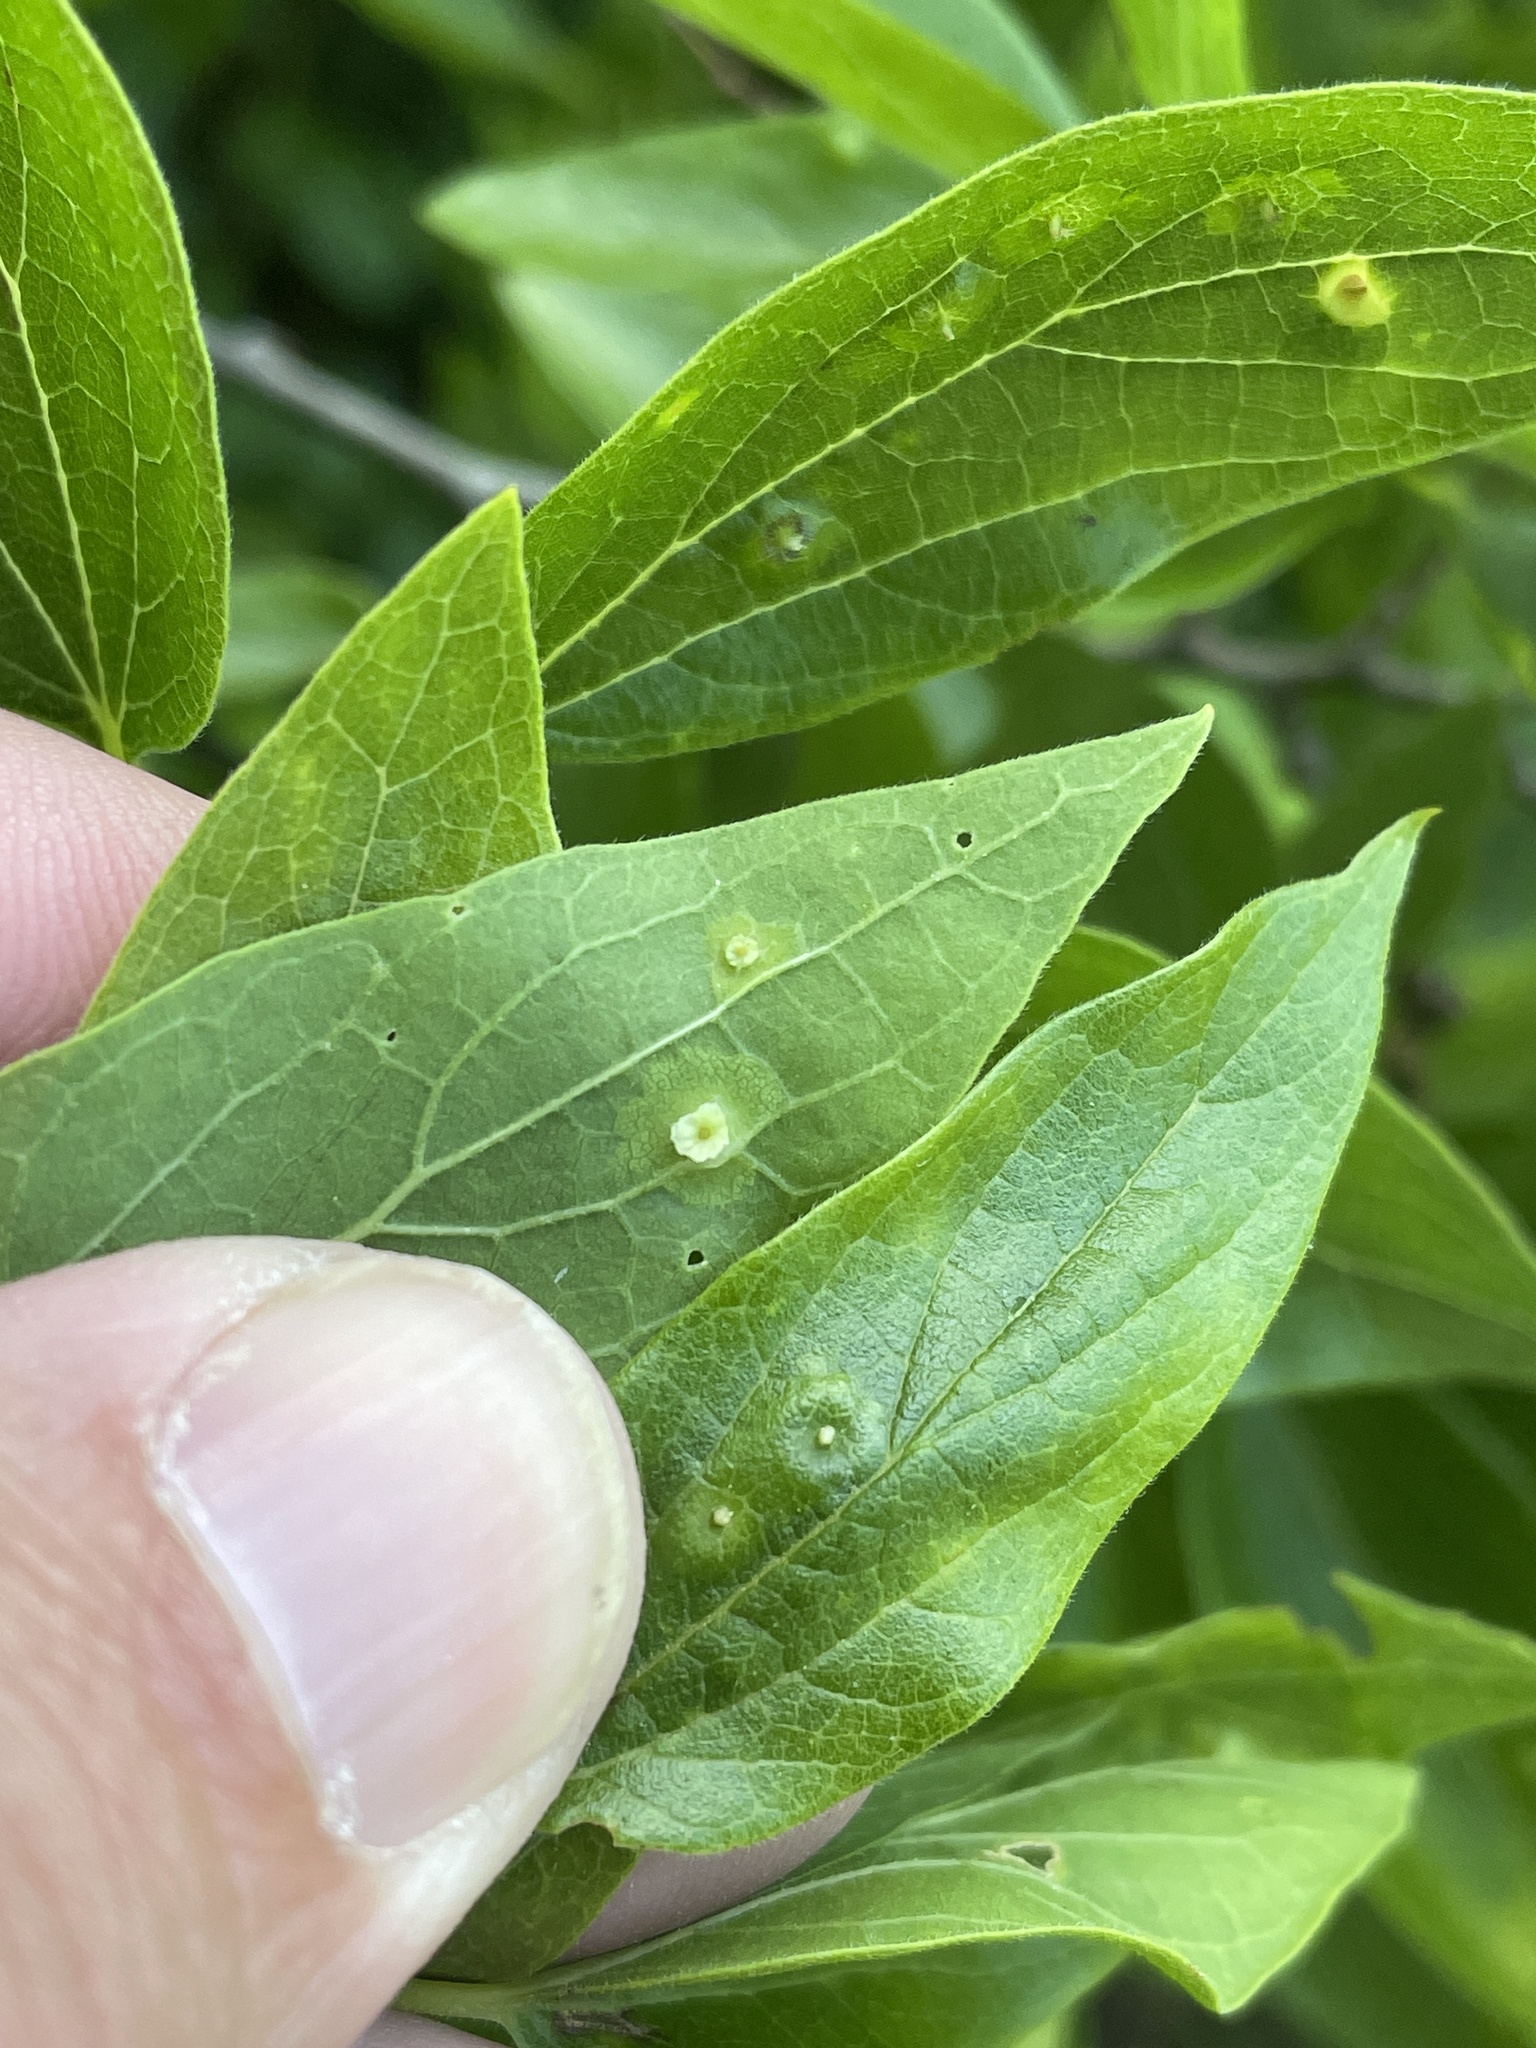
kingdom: Animalia
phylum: Arthropoda
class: Insecta
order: Hemiptera
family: Aphalaridae
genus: Pachypsylla
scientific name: Pachypsylla celtidisasterisca
